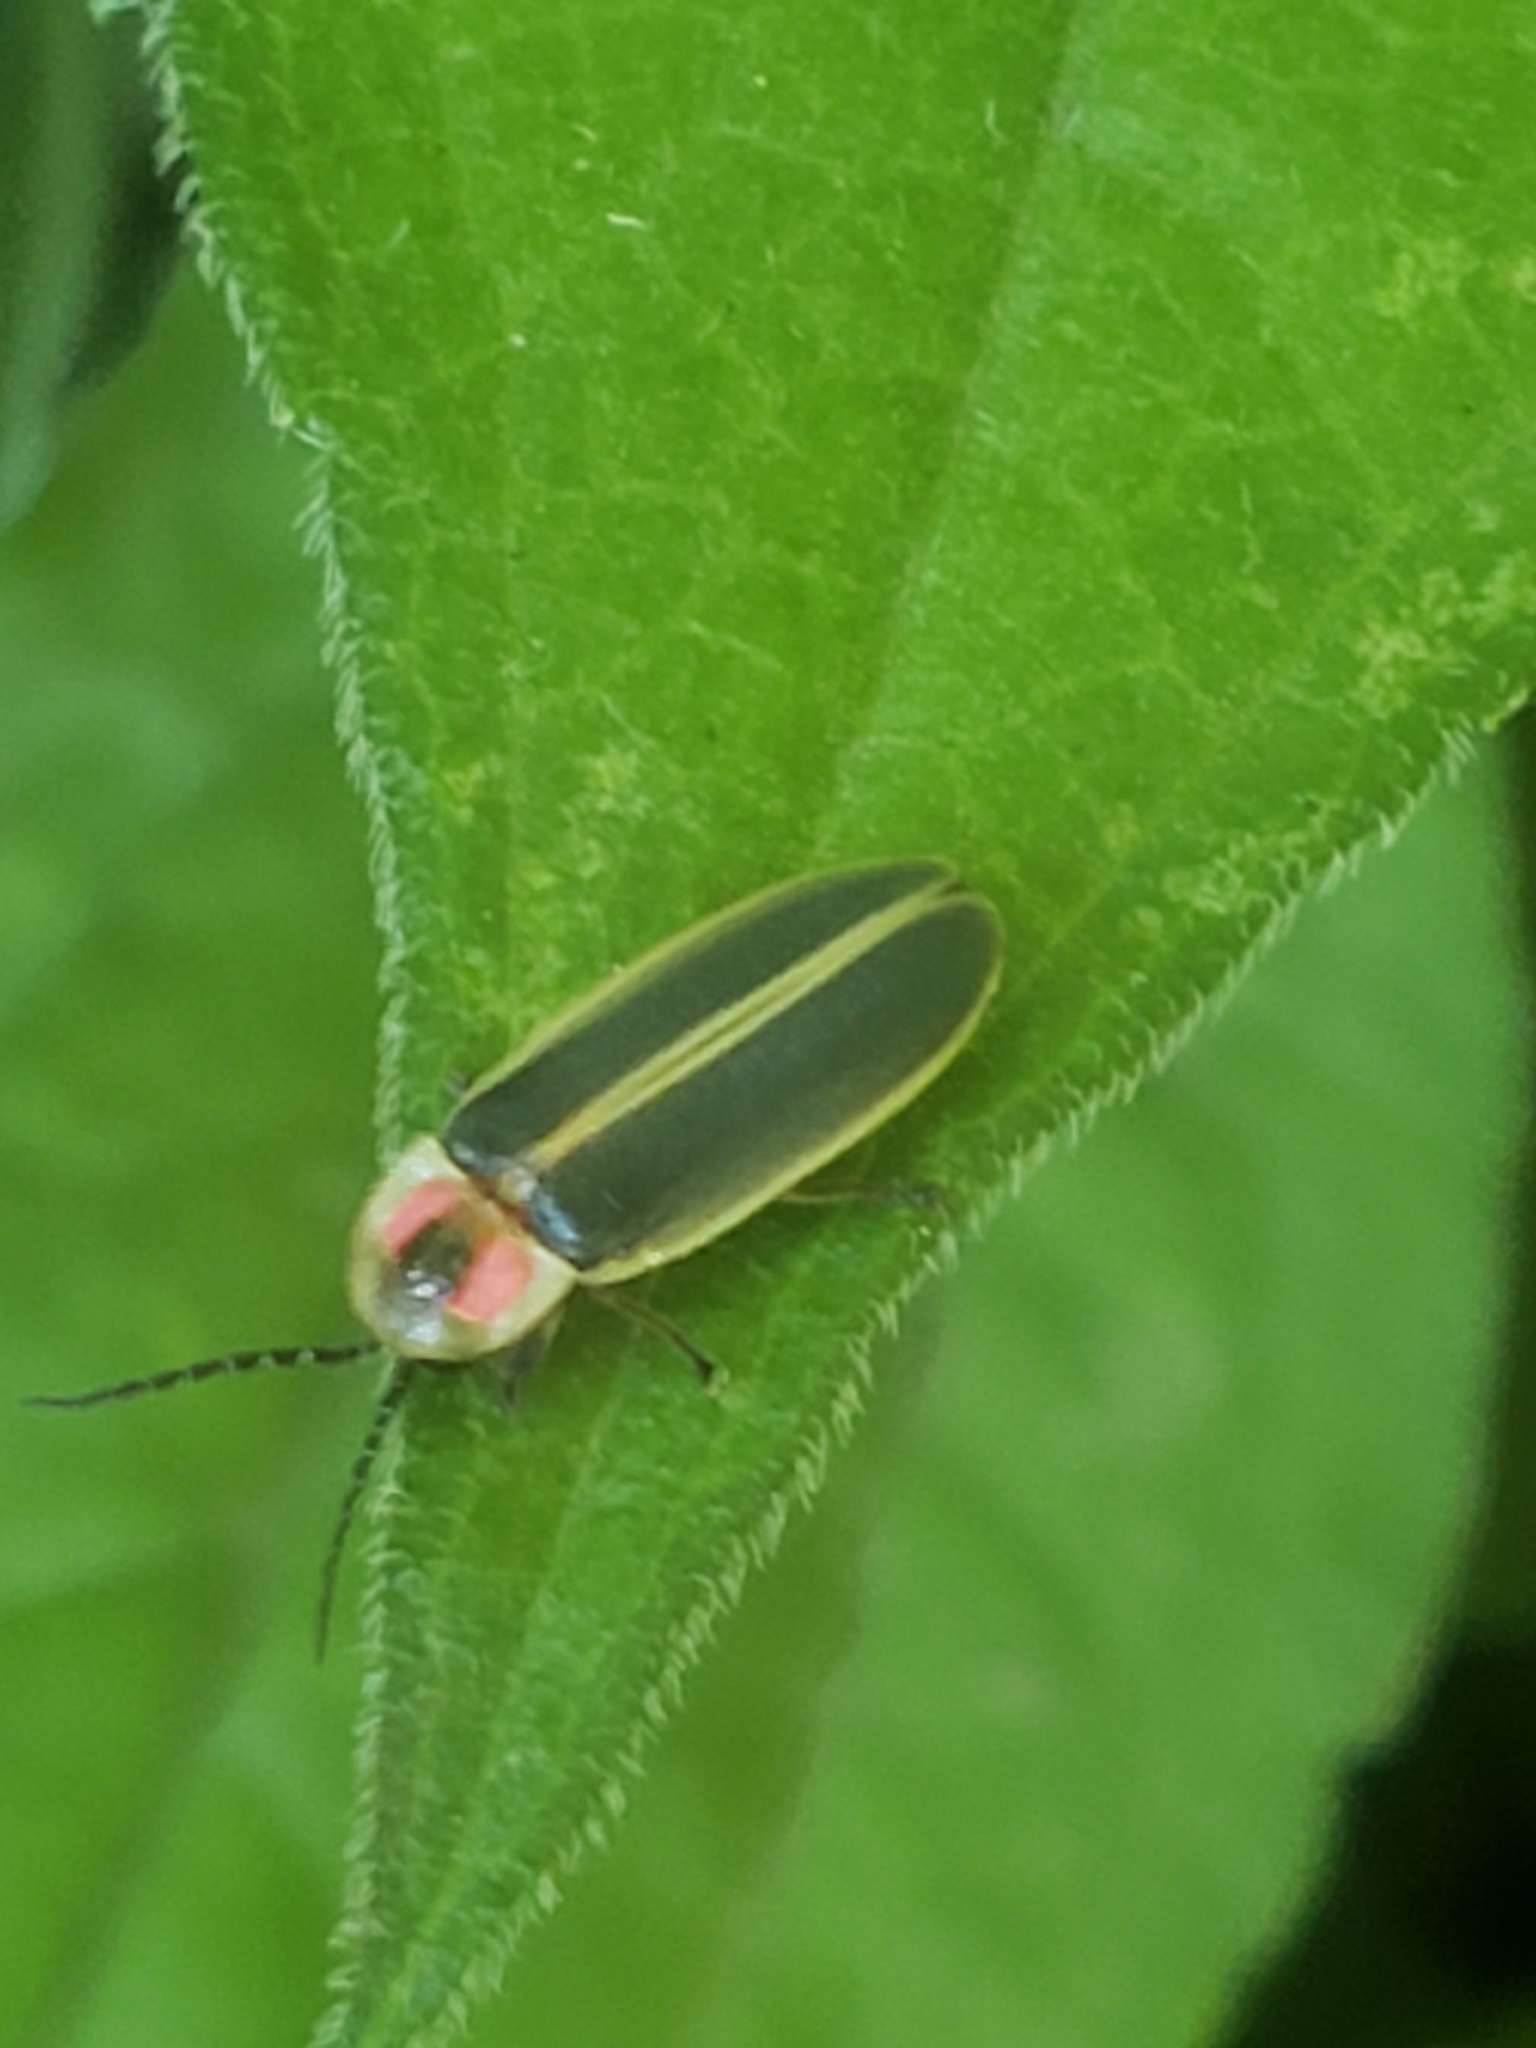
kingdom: Animalia
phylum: Arthropoda
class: Insecta
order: Coleoptera
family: Lampyridae
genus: Photinus
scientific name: Photinus pyralis
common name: Big dipper firefly
